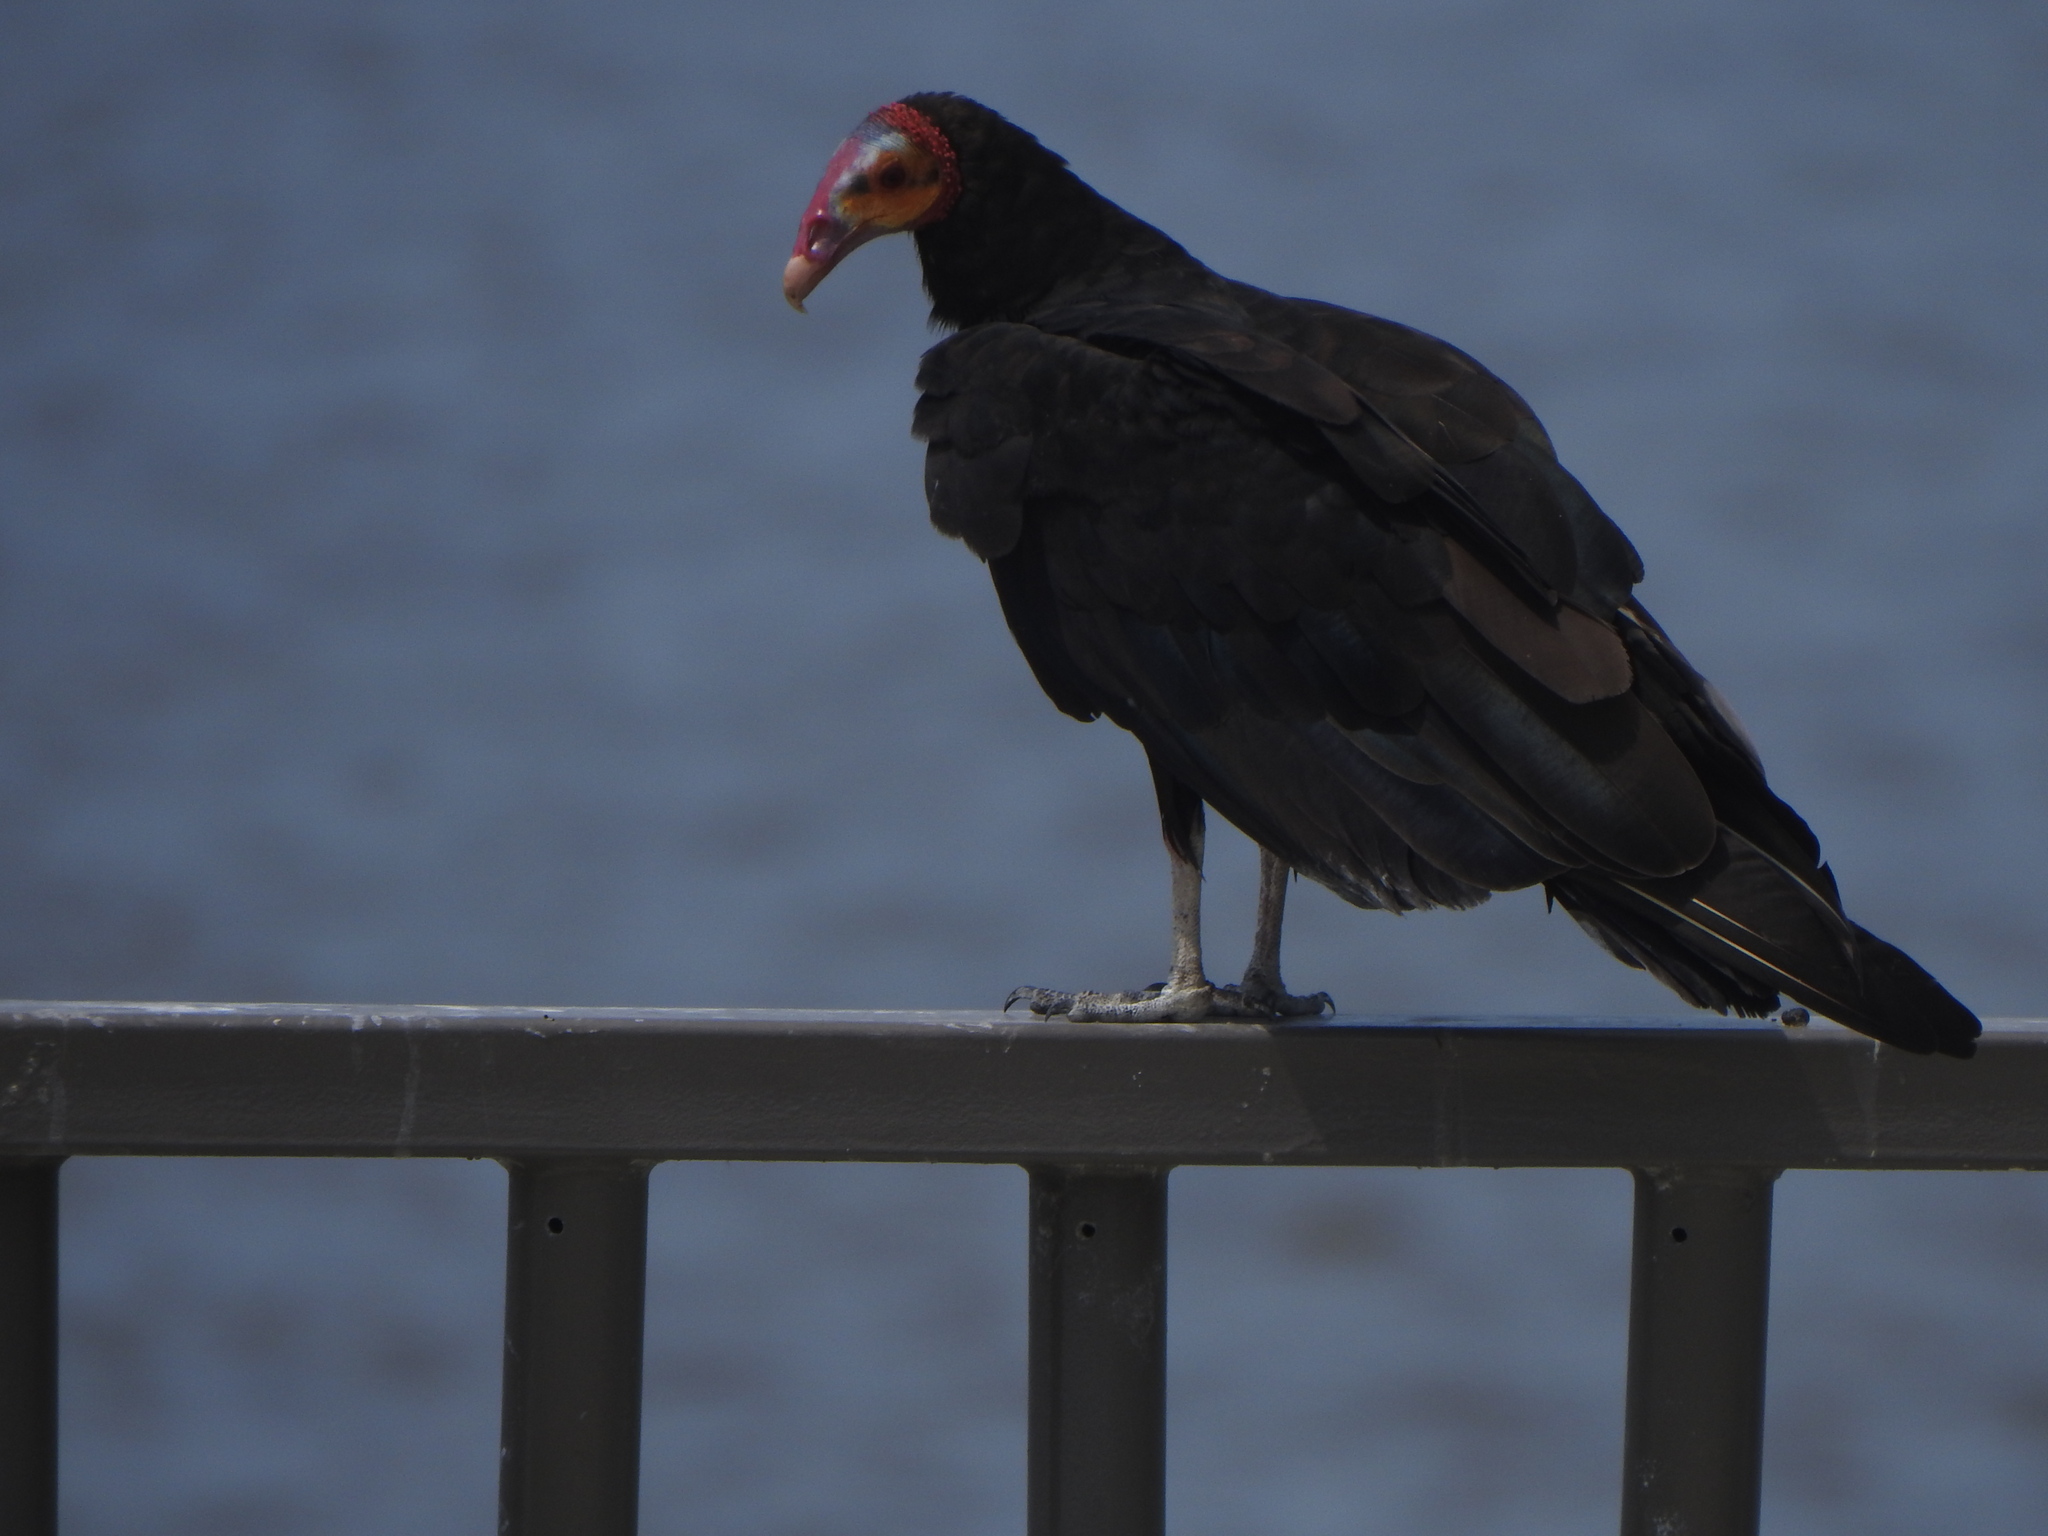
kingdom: Animalia
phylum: Chordata
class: Aves
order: Accipitriformes
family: Cathartidae
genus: Cathartes
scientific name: Cathartes burrovianus
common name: Lesser yellow-headed vulture
